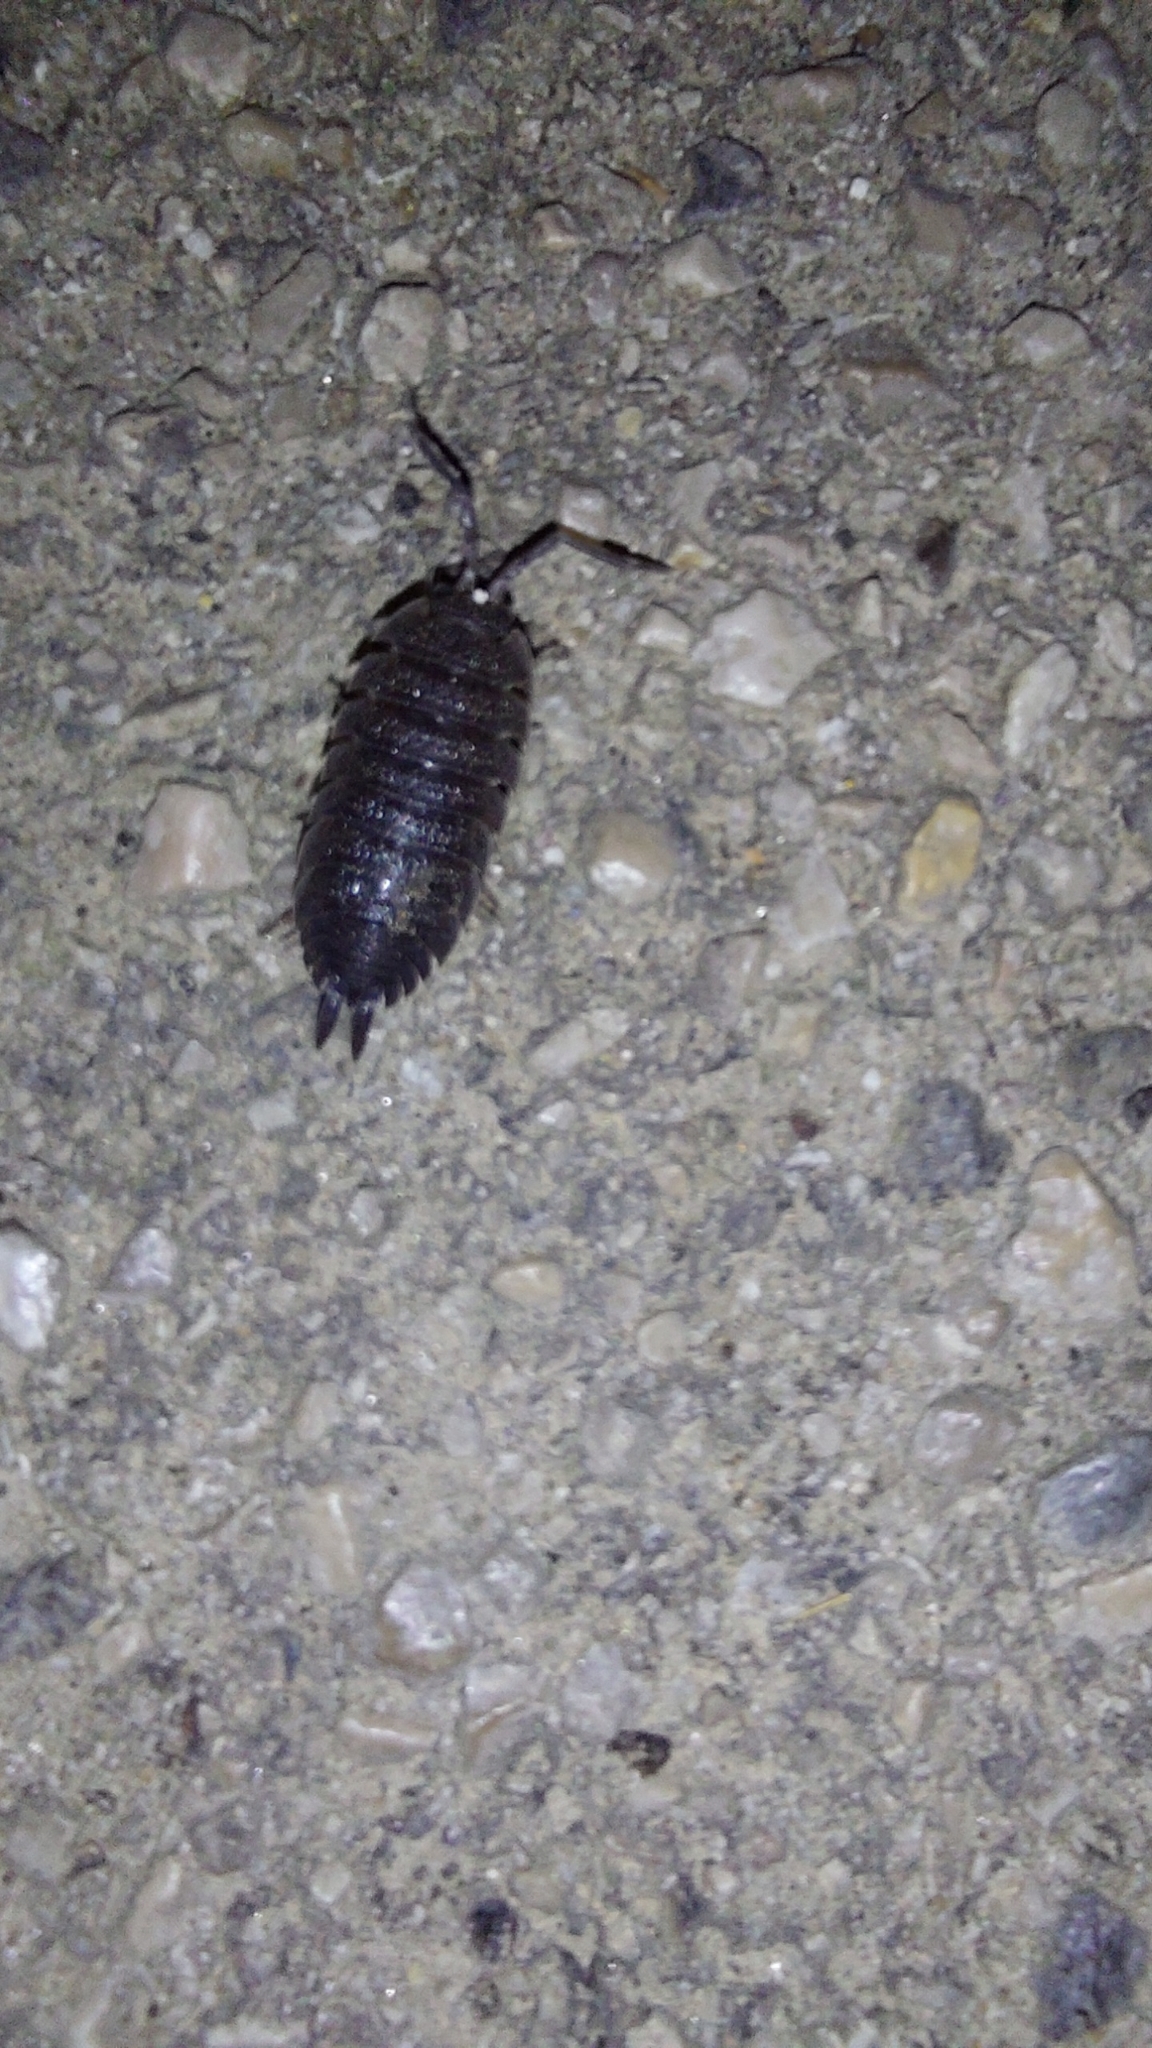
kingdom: Animalia
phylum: Arthropoda
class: Malacostraca
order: Isopoda
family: Porcellionidae
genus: Porcellio
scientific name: Porcellio scaber
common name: Common rough woodlouse
